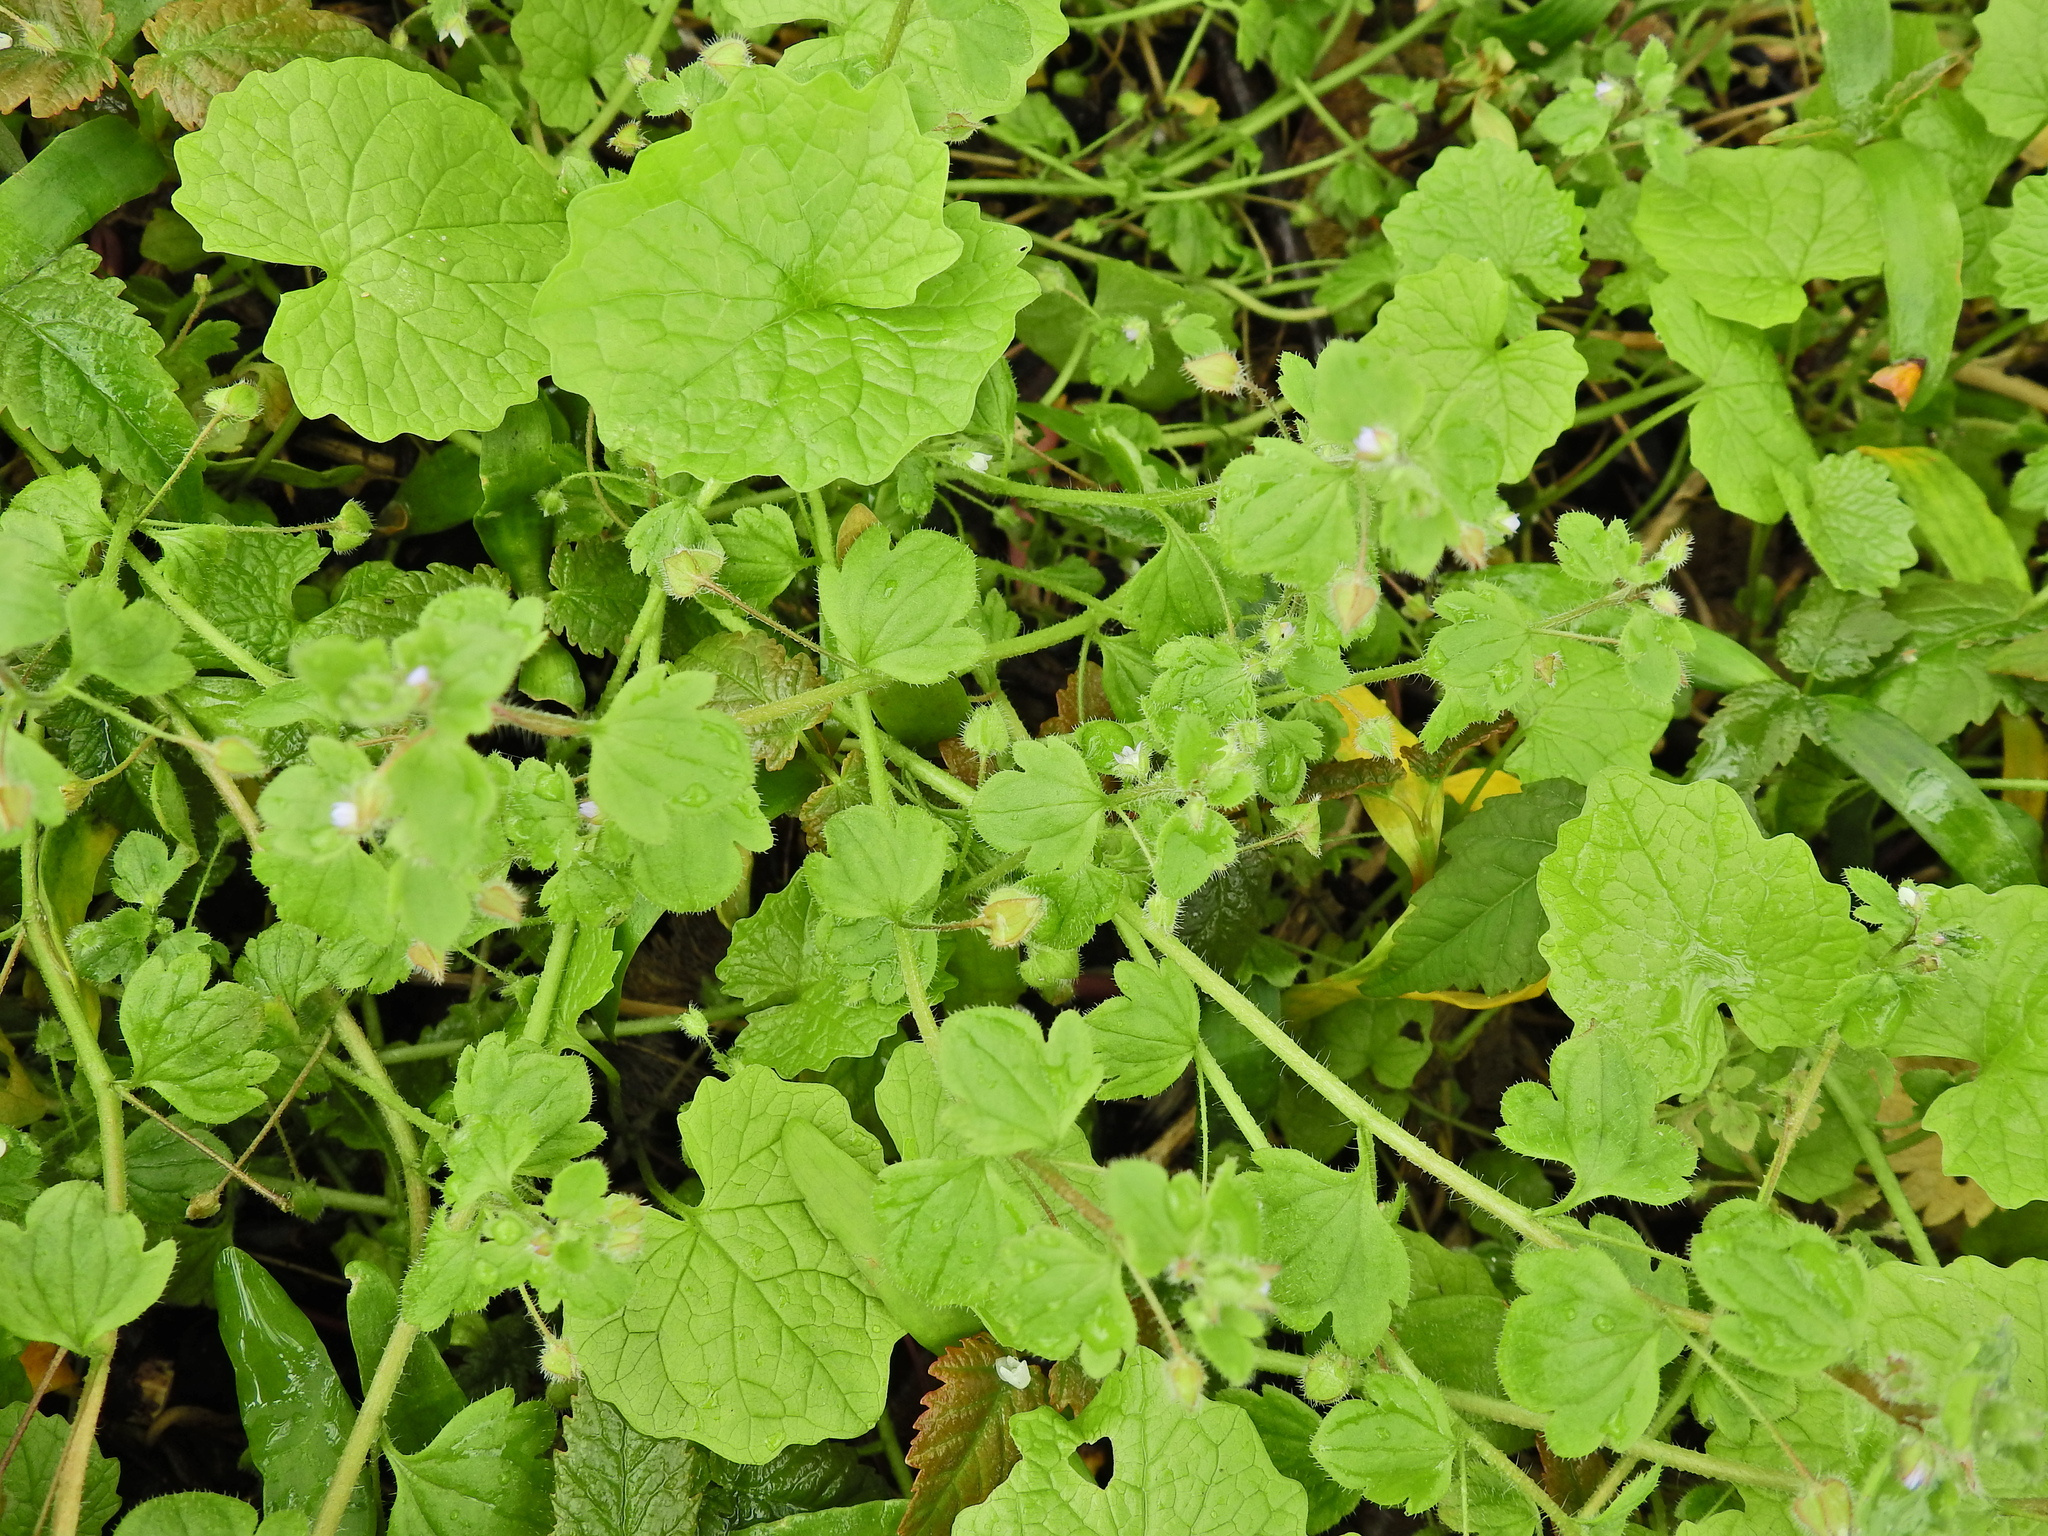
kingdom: Plantae
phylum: Tracheophyta
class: Magnoliopsida
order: Lamiales
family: Plantaginaceae
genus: Veronica
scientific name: Veronica sublobata
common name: False ivy-leaved speedwell
